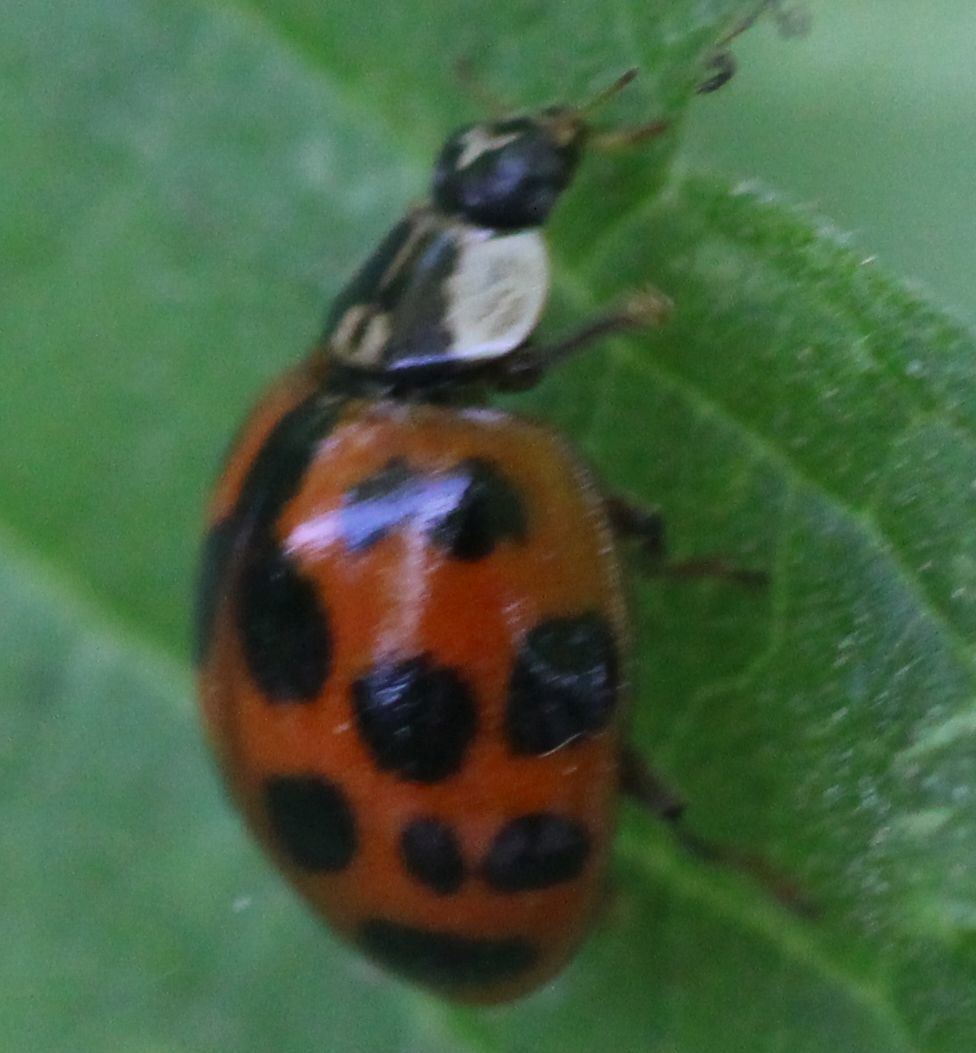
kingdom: Animalia
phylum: Arthropoda
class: Insecta
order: Coleoptera
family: Coccinellidae
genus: Harmonia
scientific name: Harmonia axyridis
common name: Harlequin ladybird
